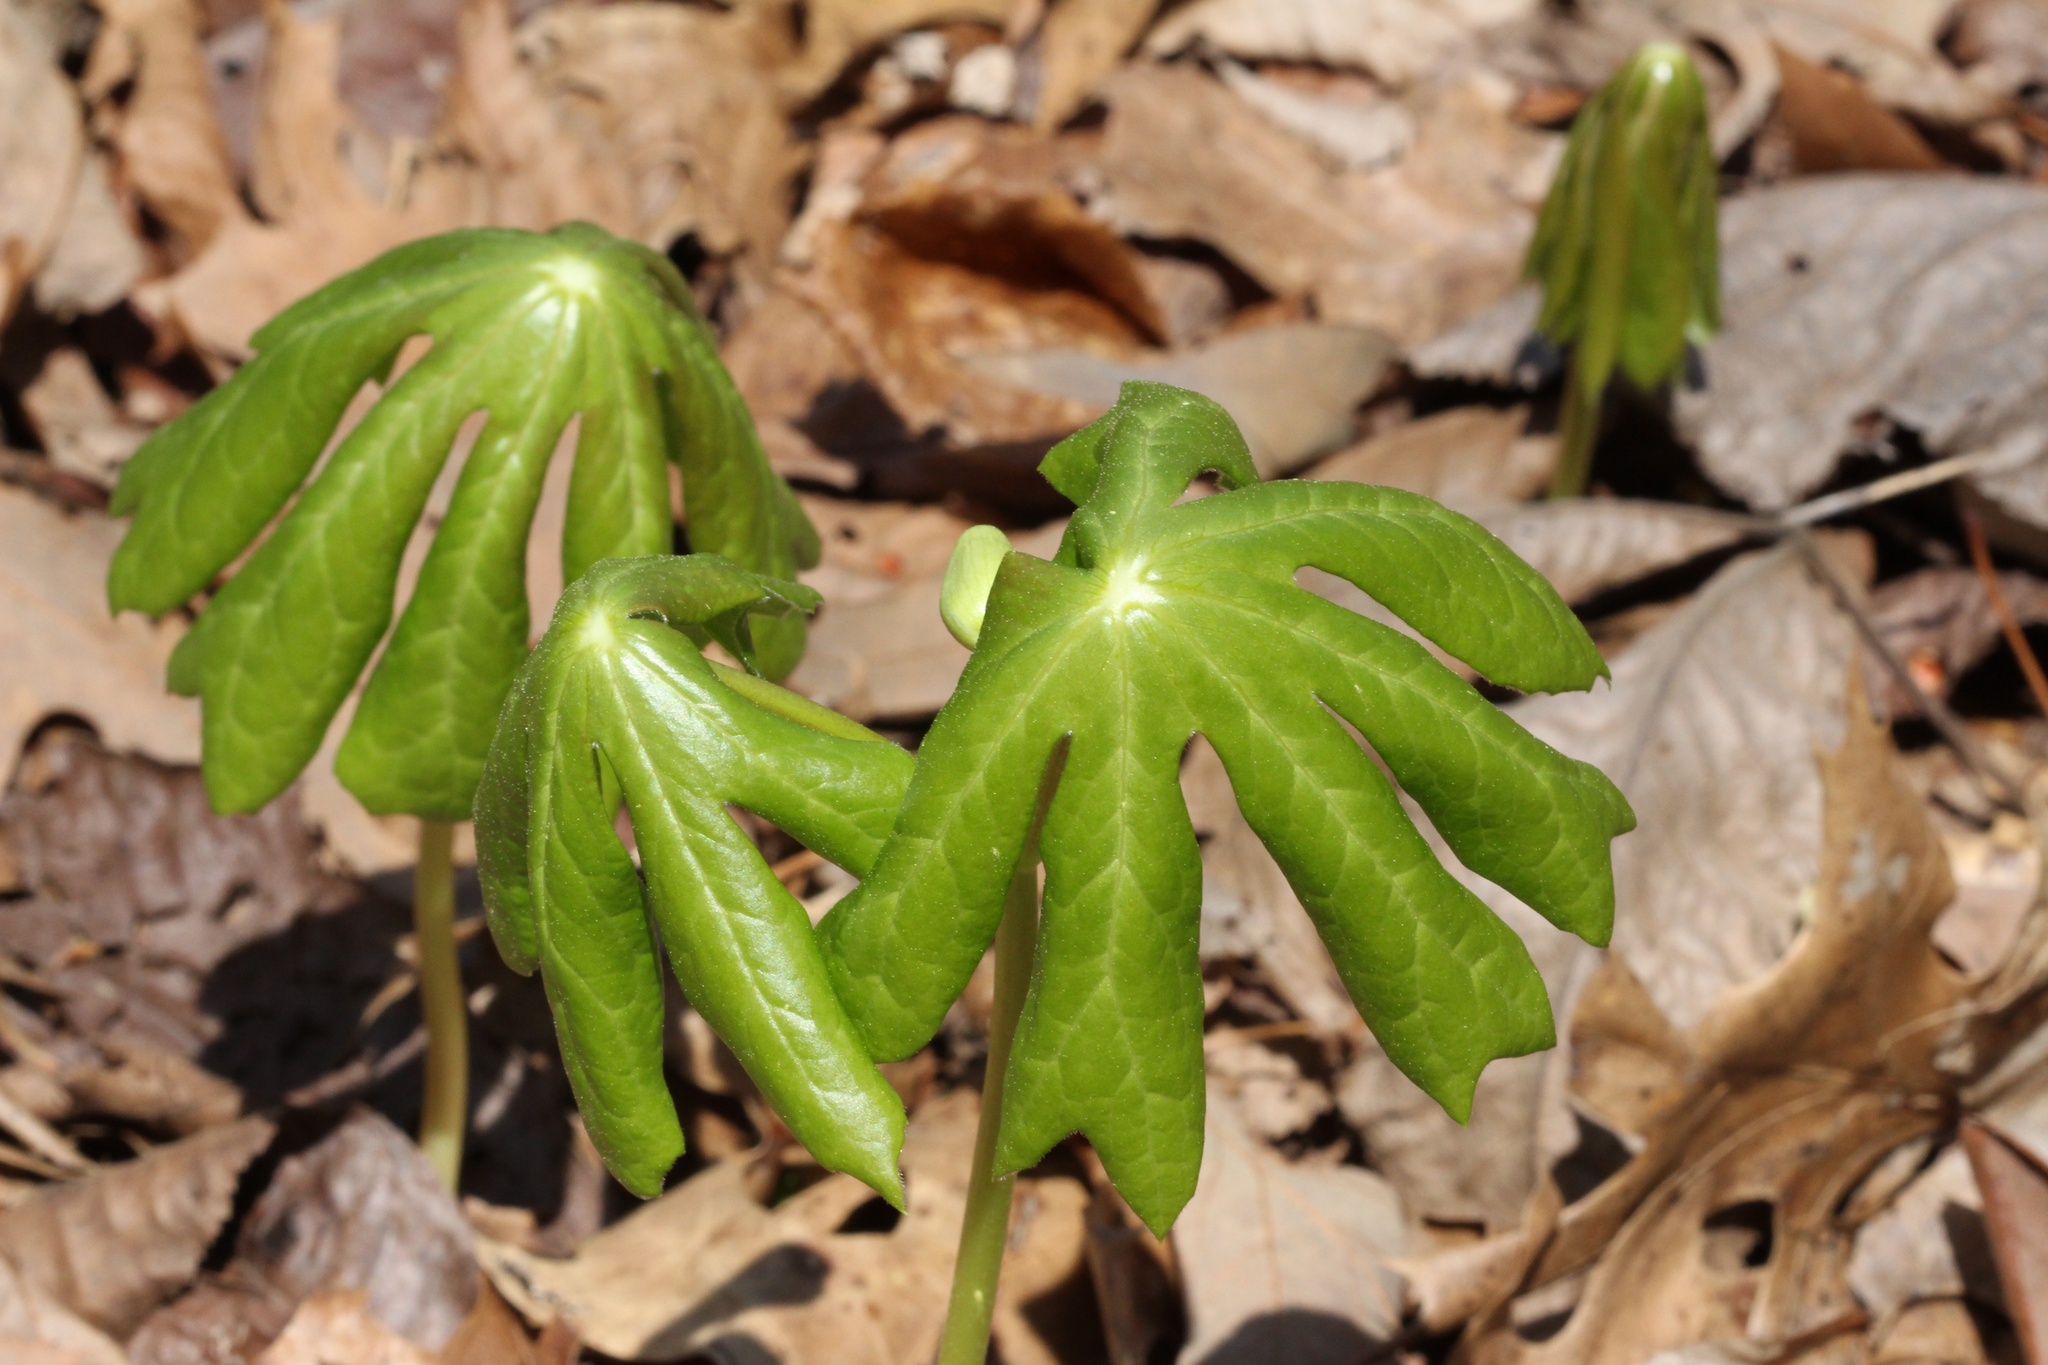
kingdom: Plantae
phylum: Tracheophyta
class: Magnoliopsida
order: Ranunculales
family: Berberidaceae
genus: Podophyllum
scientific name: Podophyllum peltatum
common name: Wild mandrake
